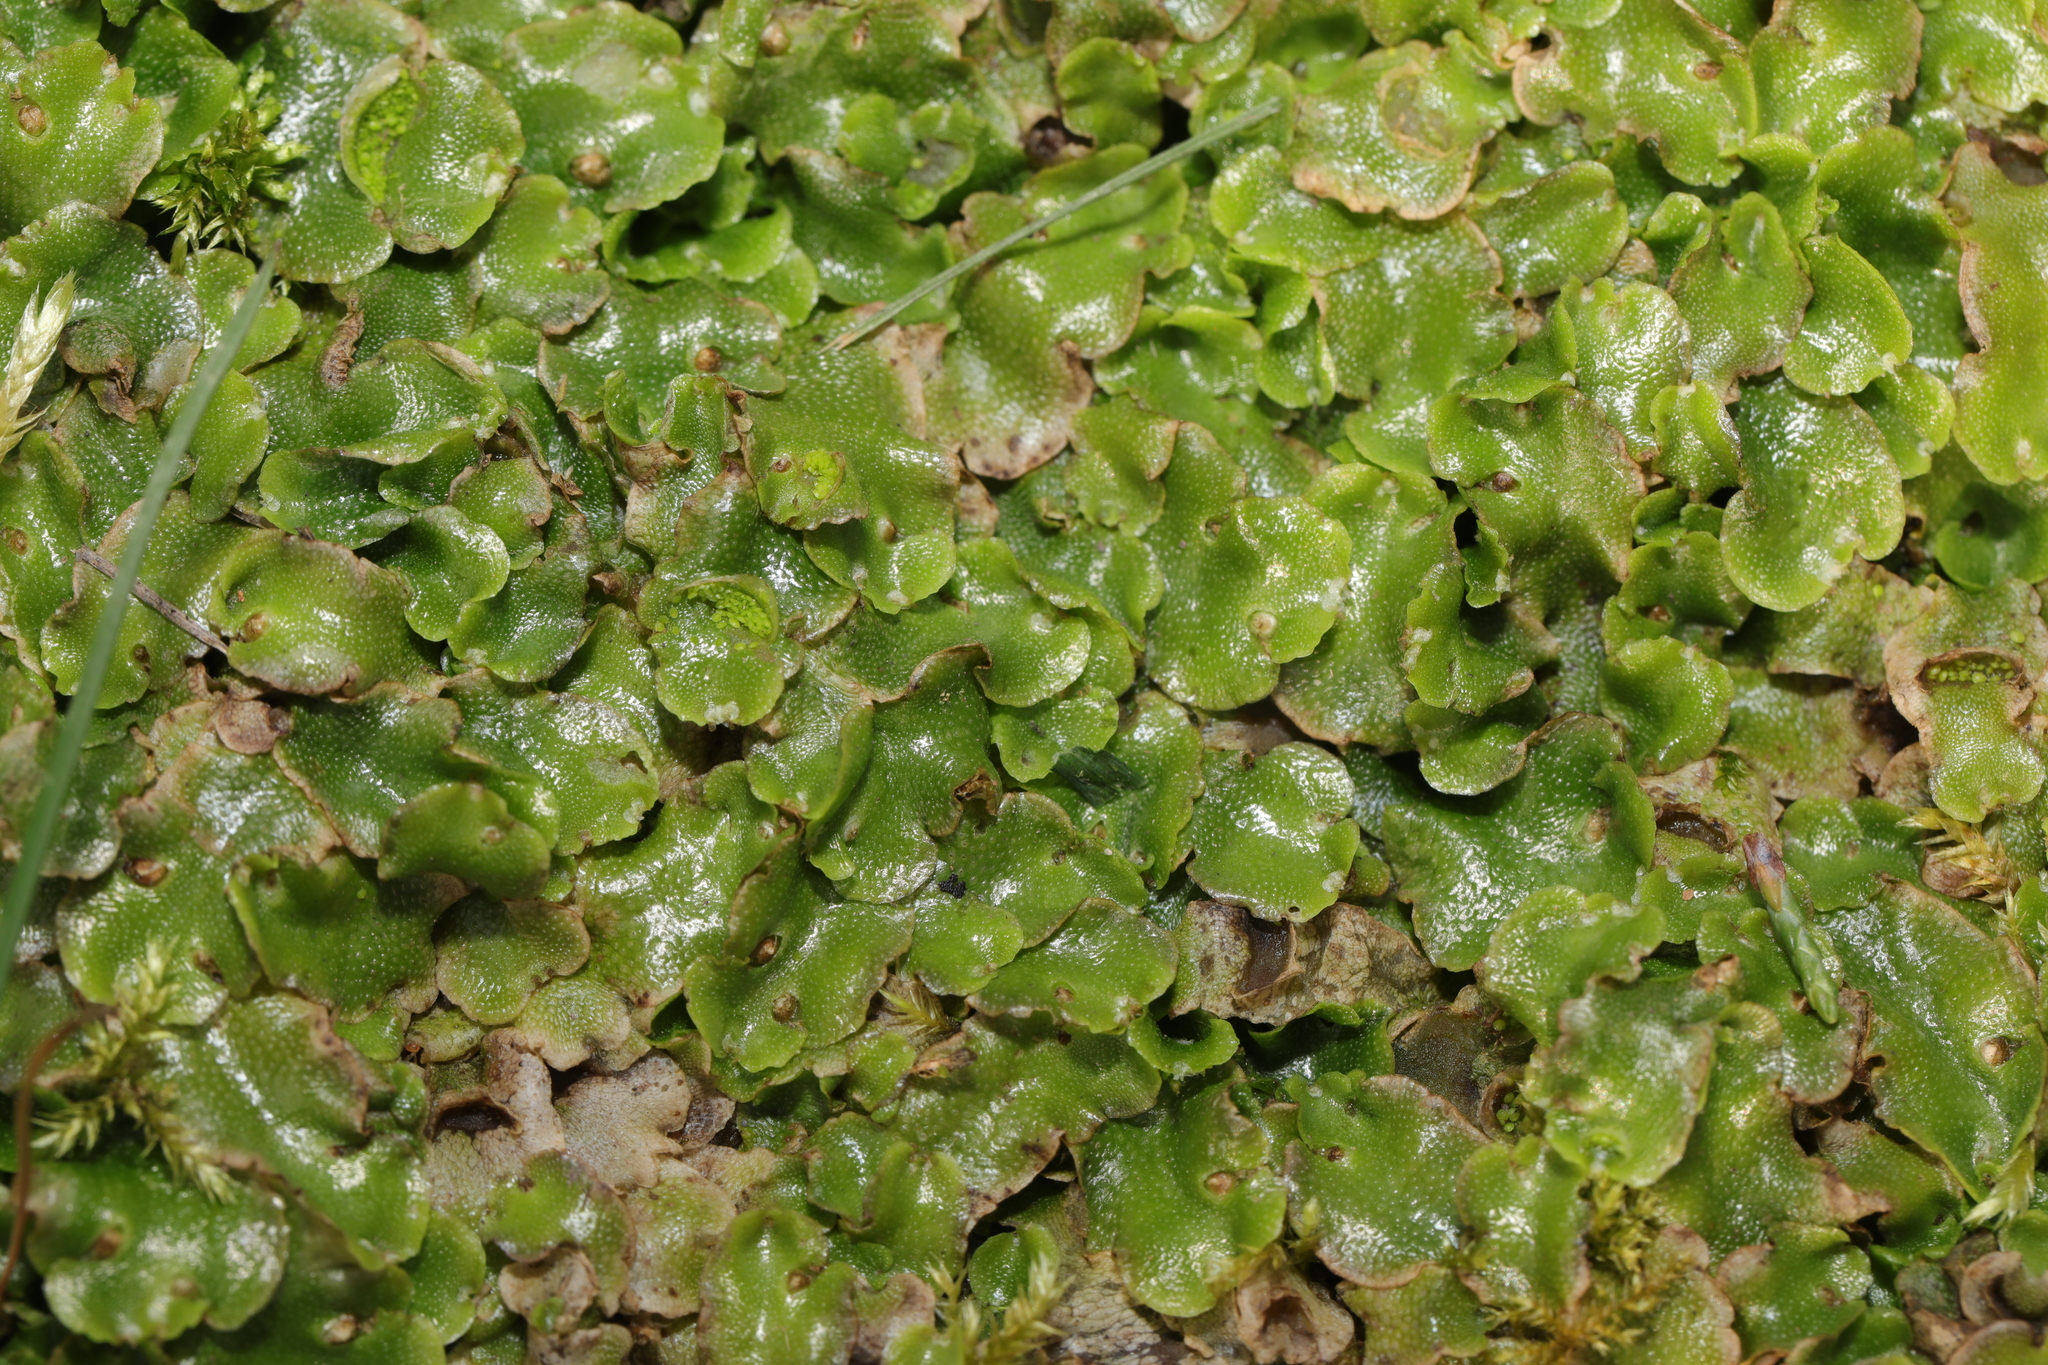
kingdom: Plantae
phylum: Marchantiophyta
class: Marchantiopsida
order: Lunulariales
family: Lunulariaceae
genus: Lunularia
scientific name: Lunularia cruciata
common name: Crescent-cup liverwort
